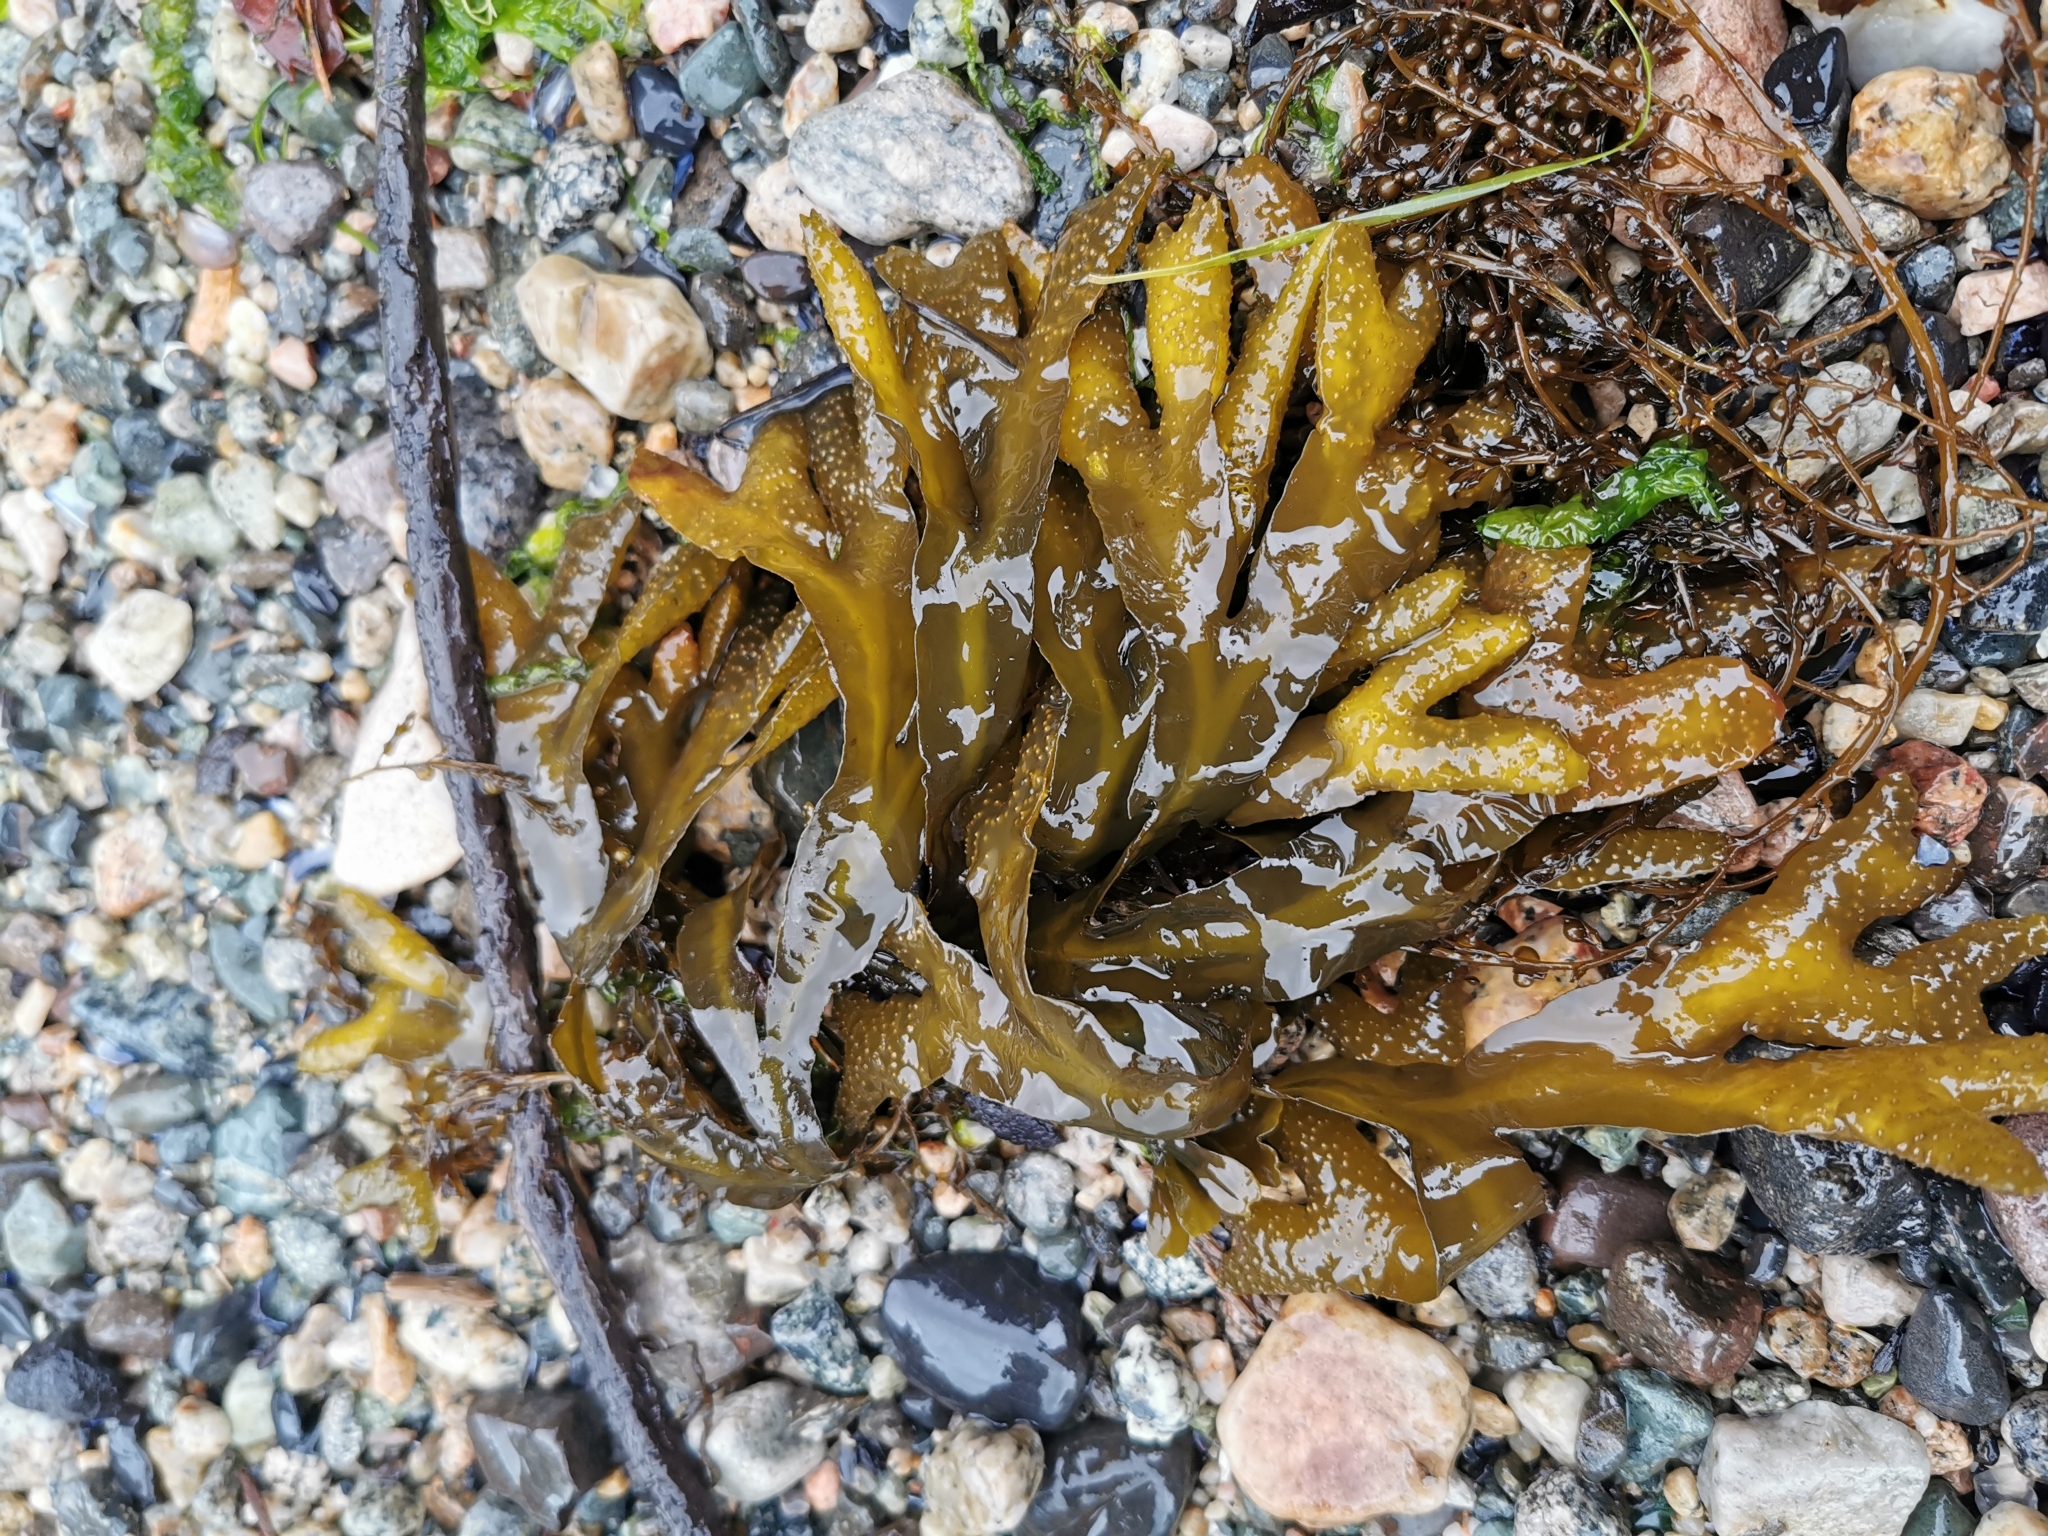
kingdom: Chromista
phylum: Ochrophyta
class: Phaeophyceae
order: Fucales
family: Fucaceae
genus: Fucus
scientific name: Fucus distichus
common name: Rockweed
